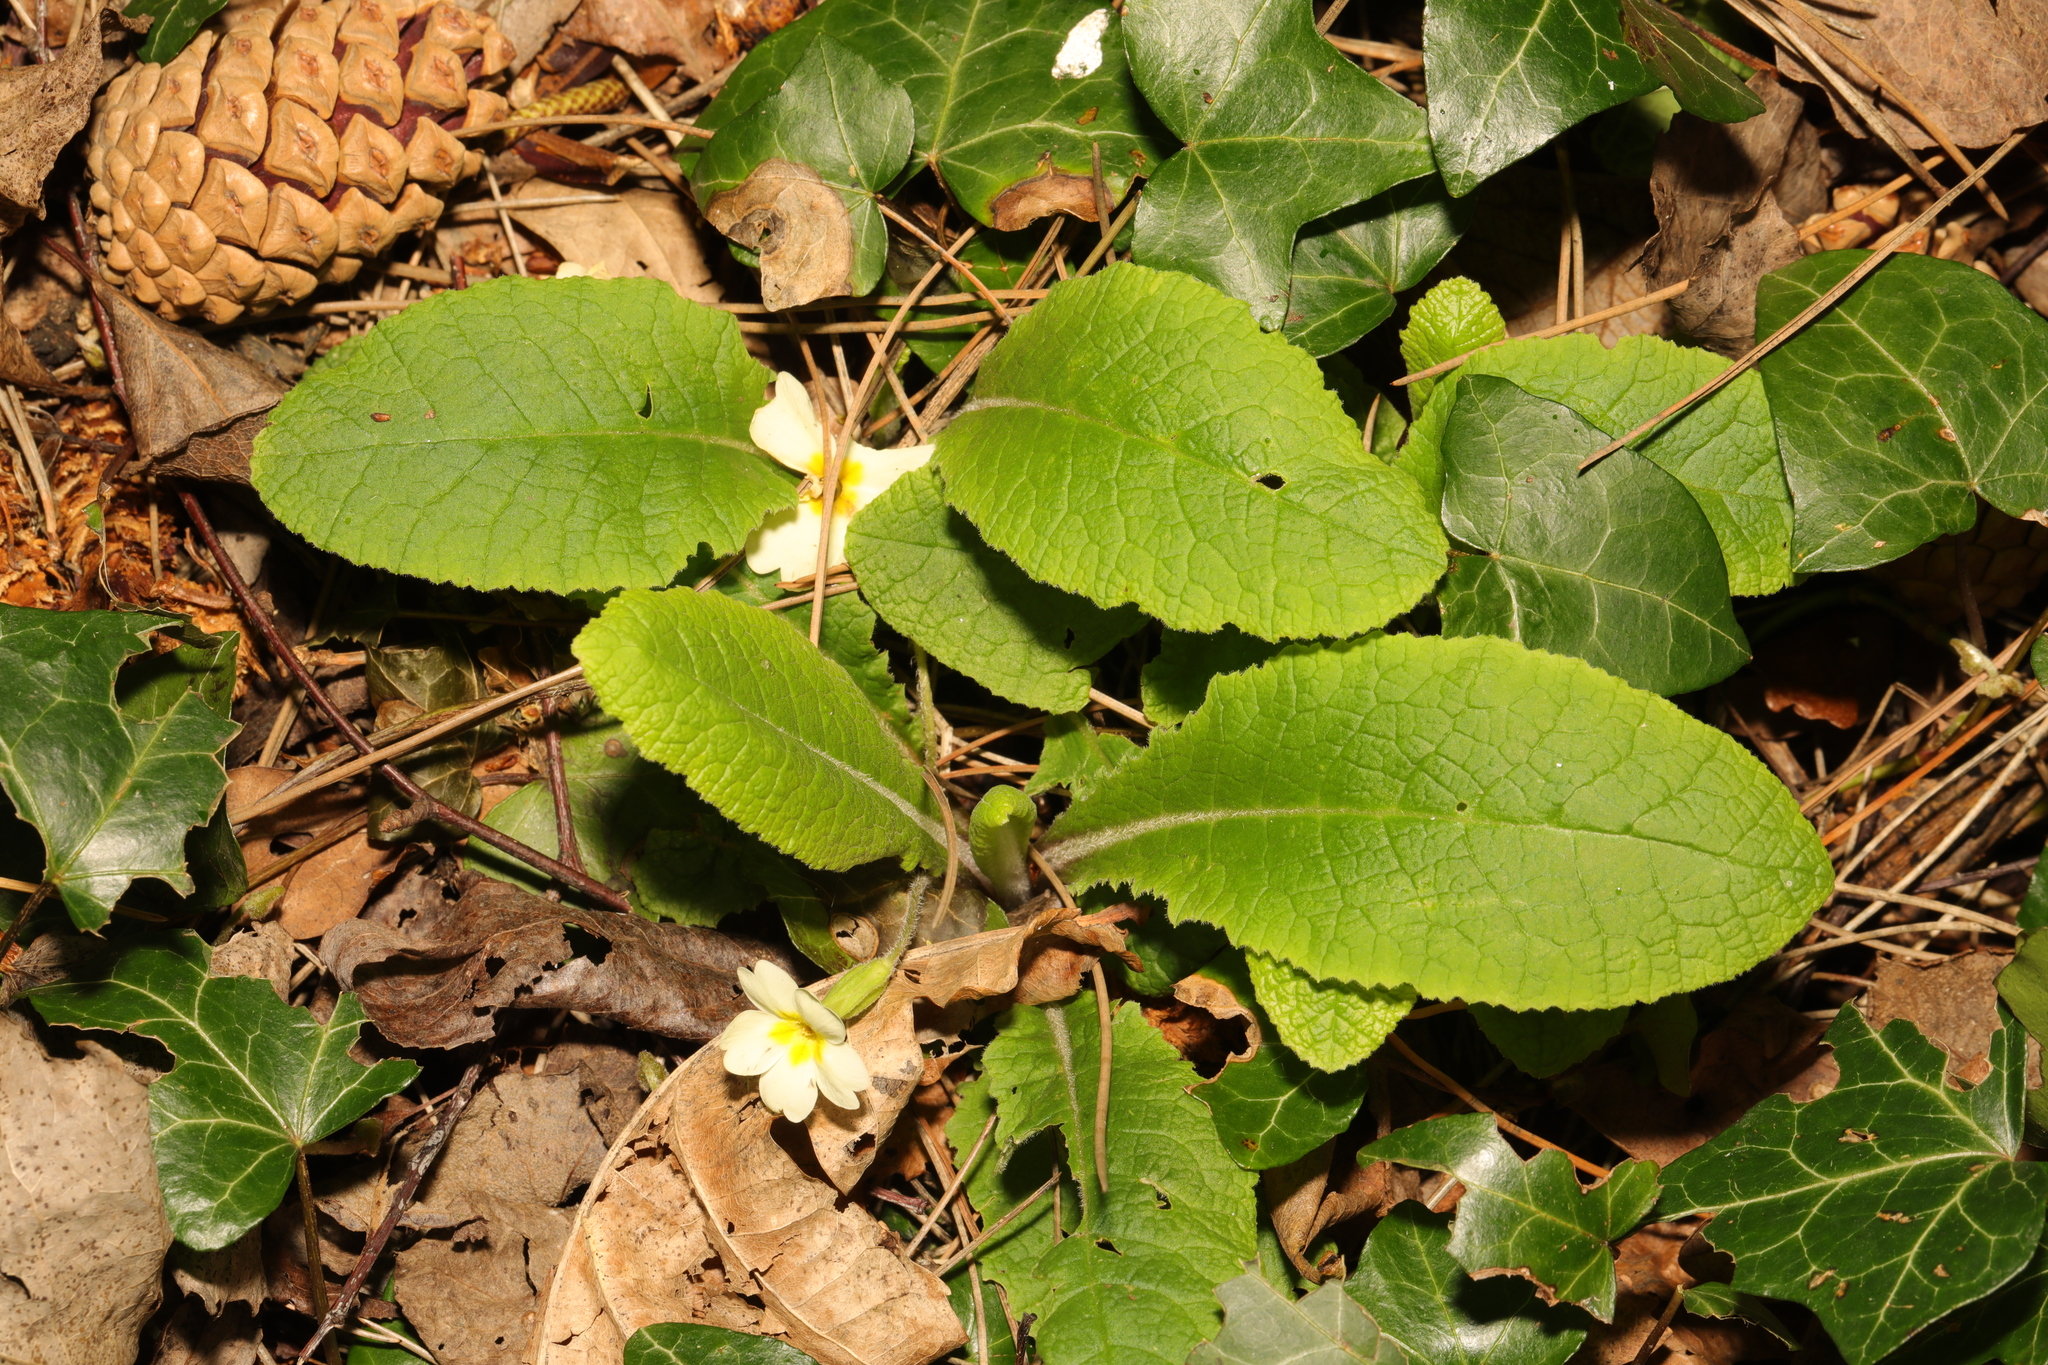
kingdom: Plantae
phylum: Tracheophyta
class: Magnoliopsida
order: Ericales
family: Primulaceae
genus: Primula
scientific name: Primula vulgaris
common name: Primrose
